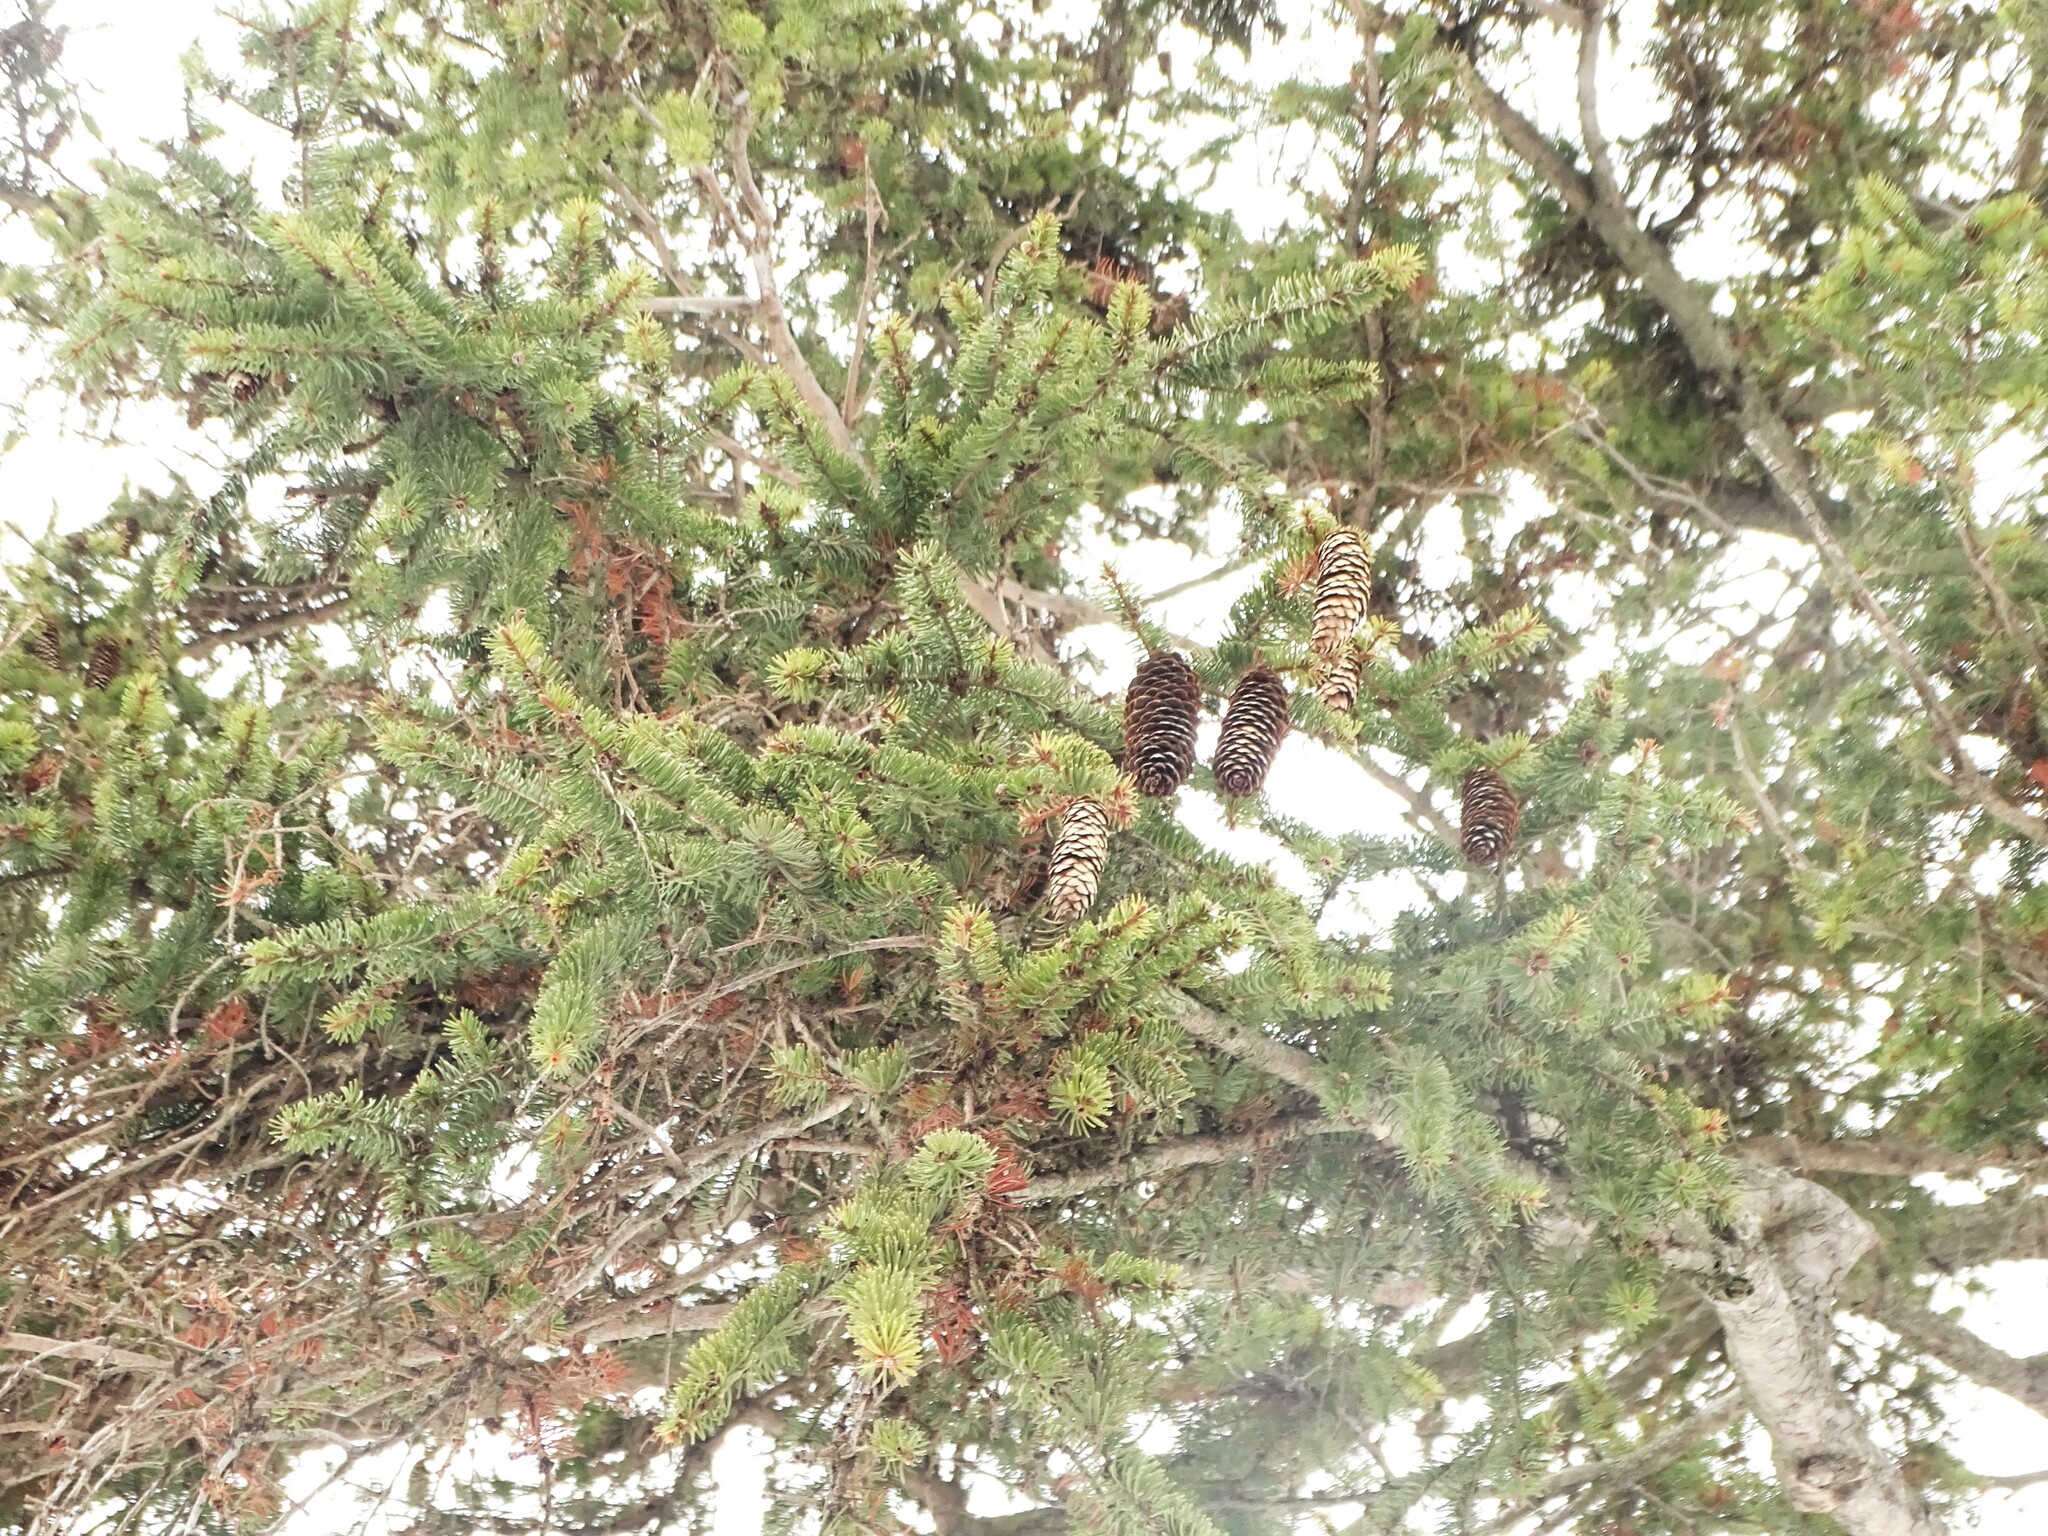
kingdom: Plantae
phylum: Tracheophyta
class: Pinopsida
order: Pinales
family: Pinaceae
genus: Picea
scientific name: Picea abies
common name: Norway spruce
